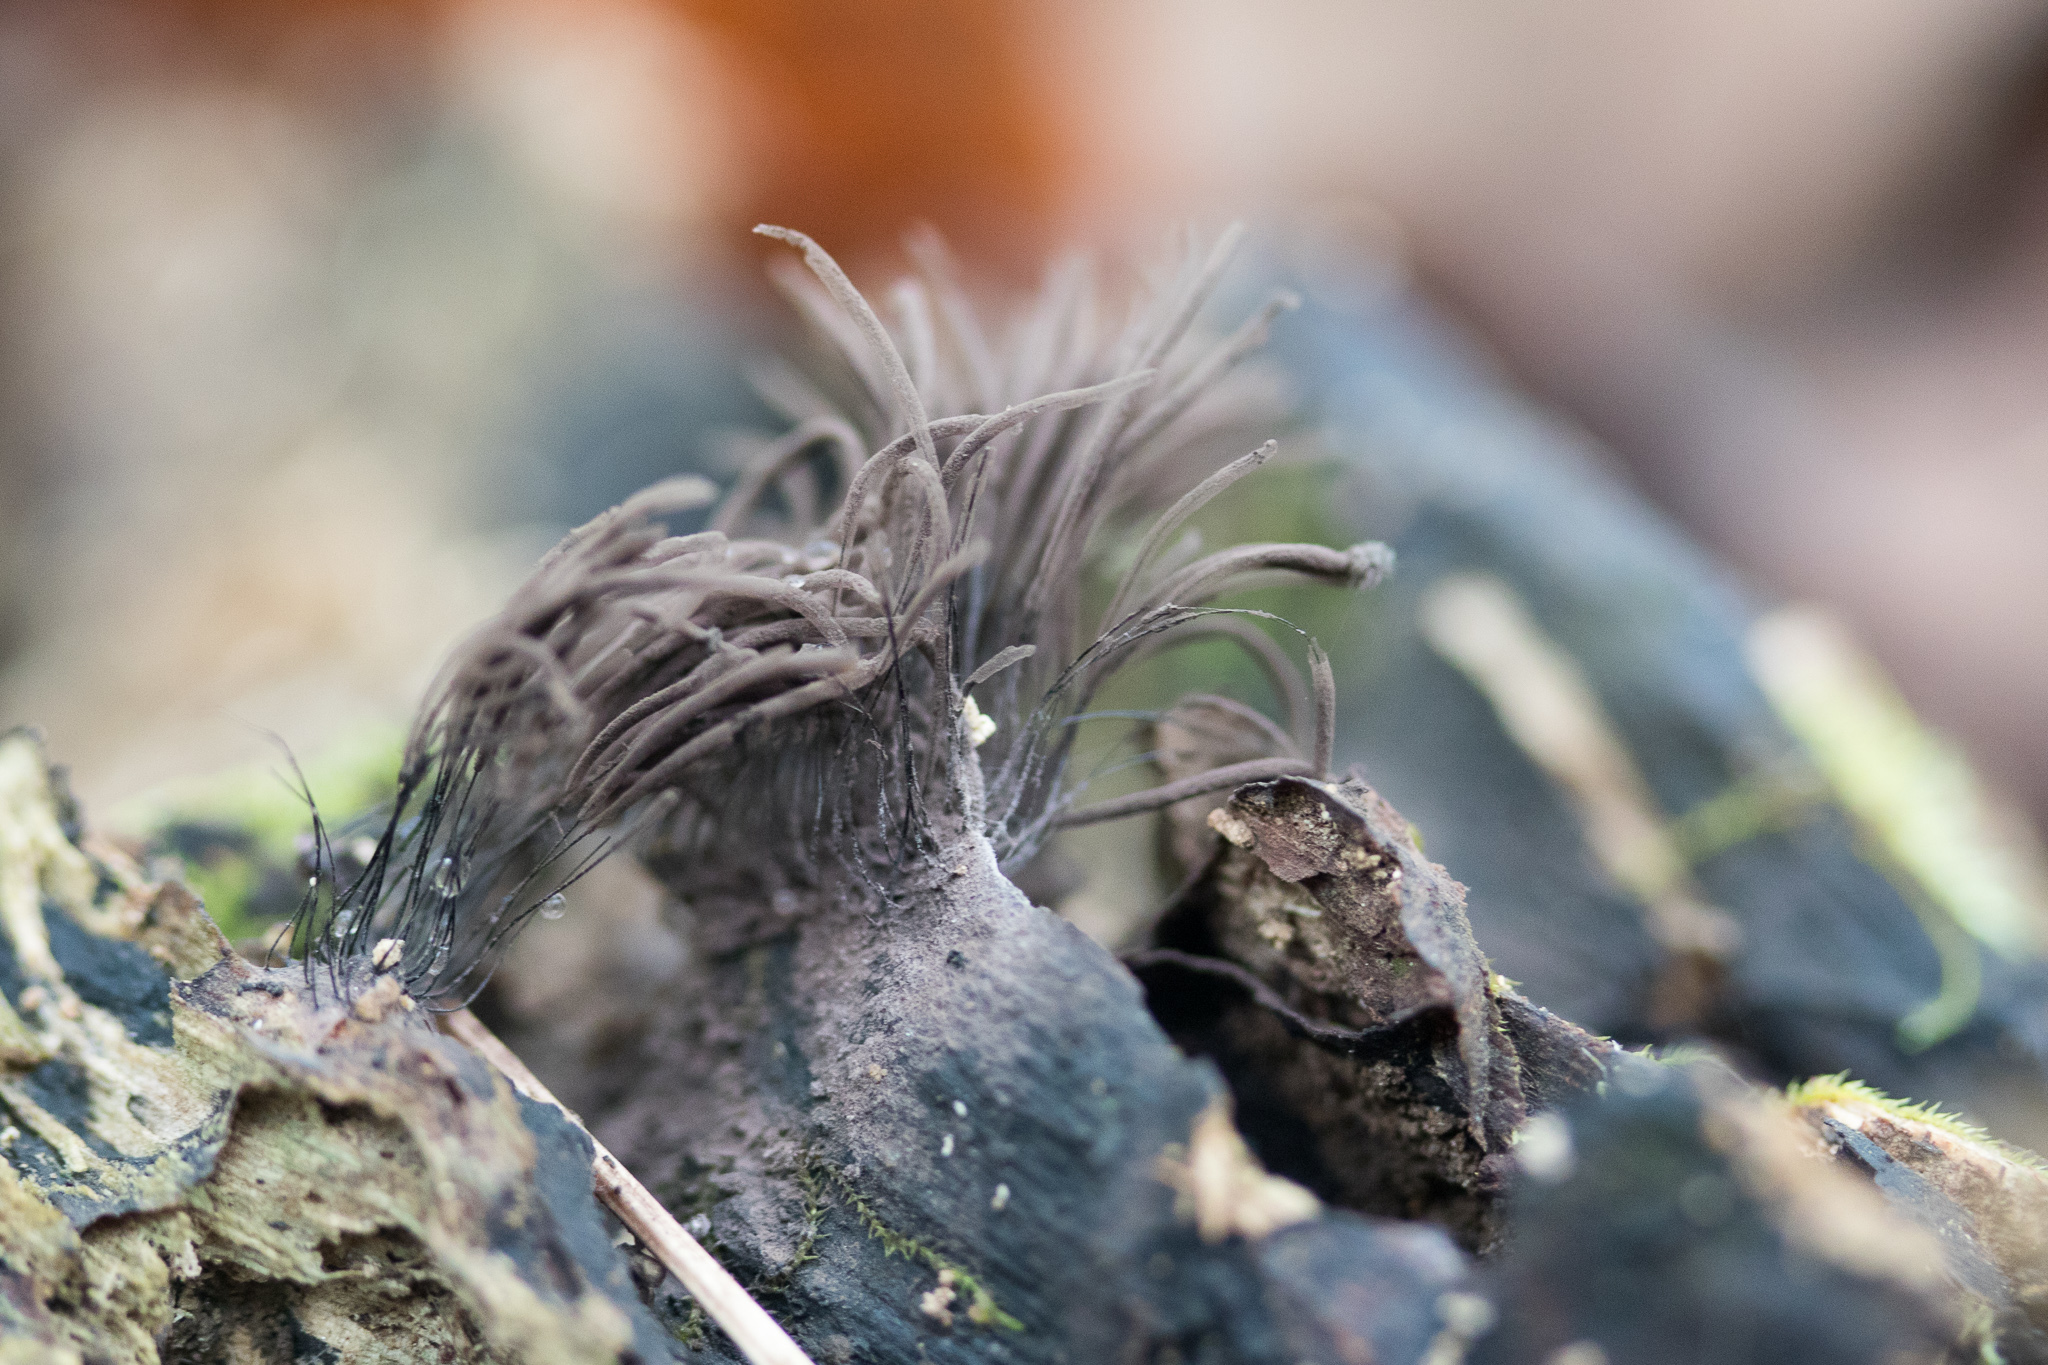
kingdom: Protozoa
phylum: Mycetozoa
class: Myxomycetes
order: Stemonitidales
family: Stemonitidaceae
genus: Stemonitis
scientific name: Stemonitis splendens
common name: Chocolate tube slime
